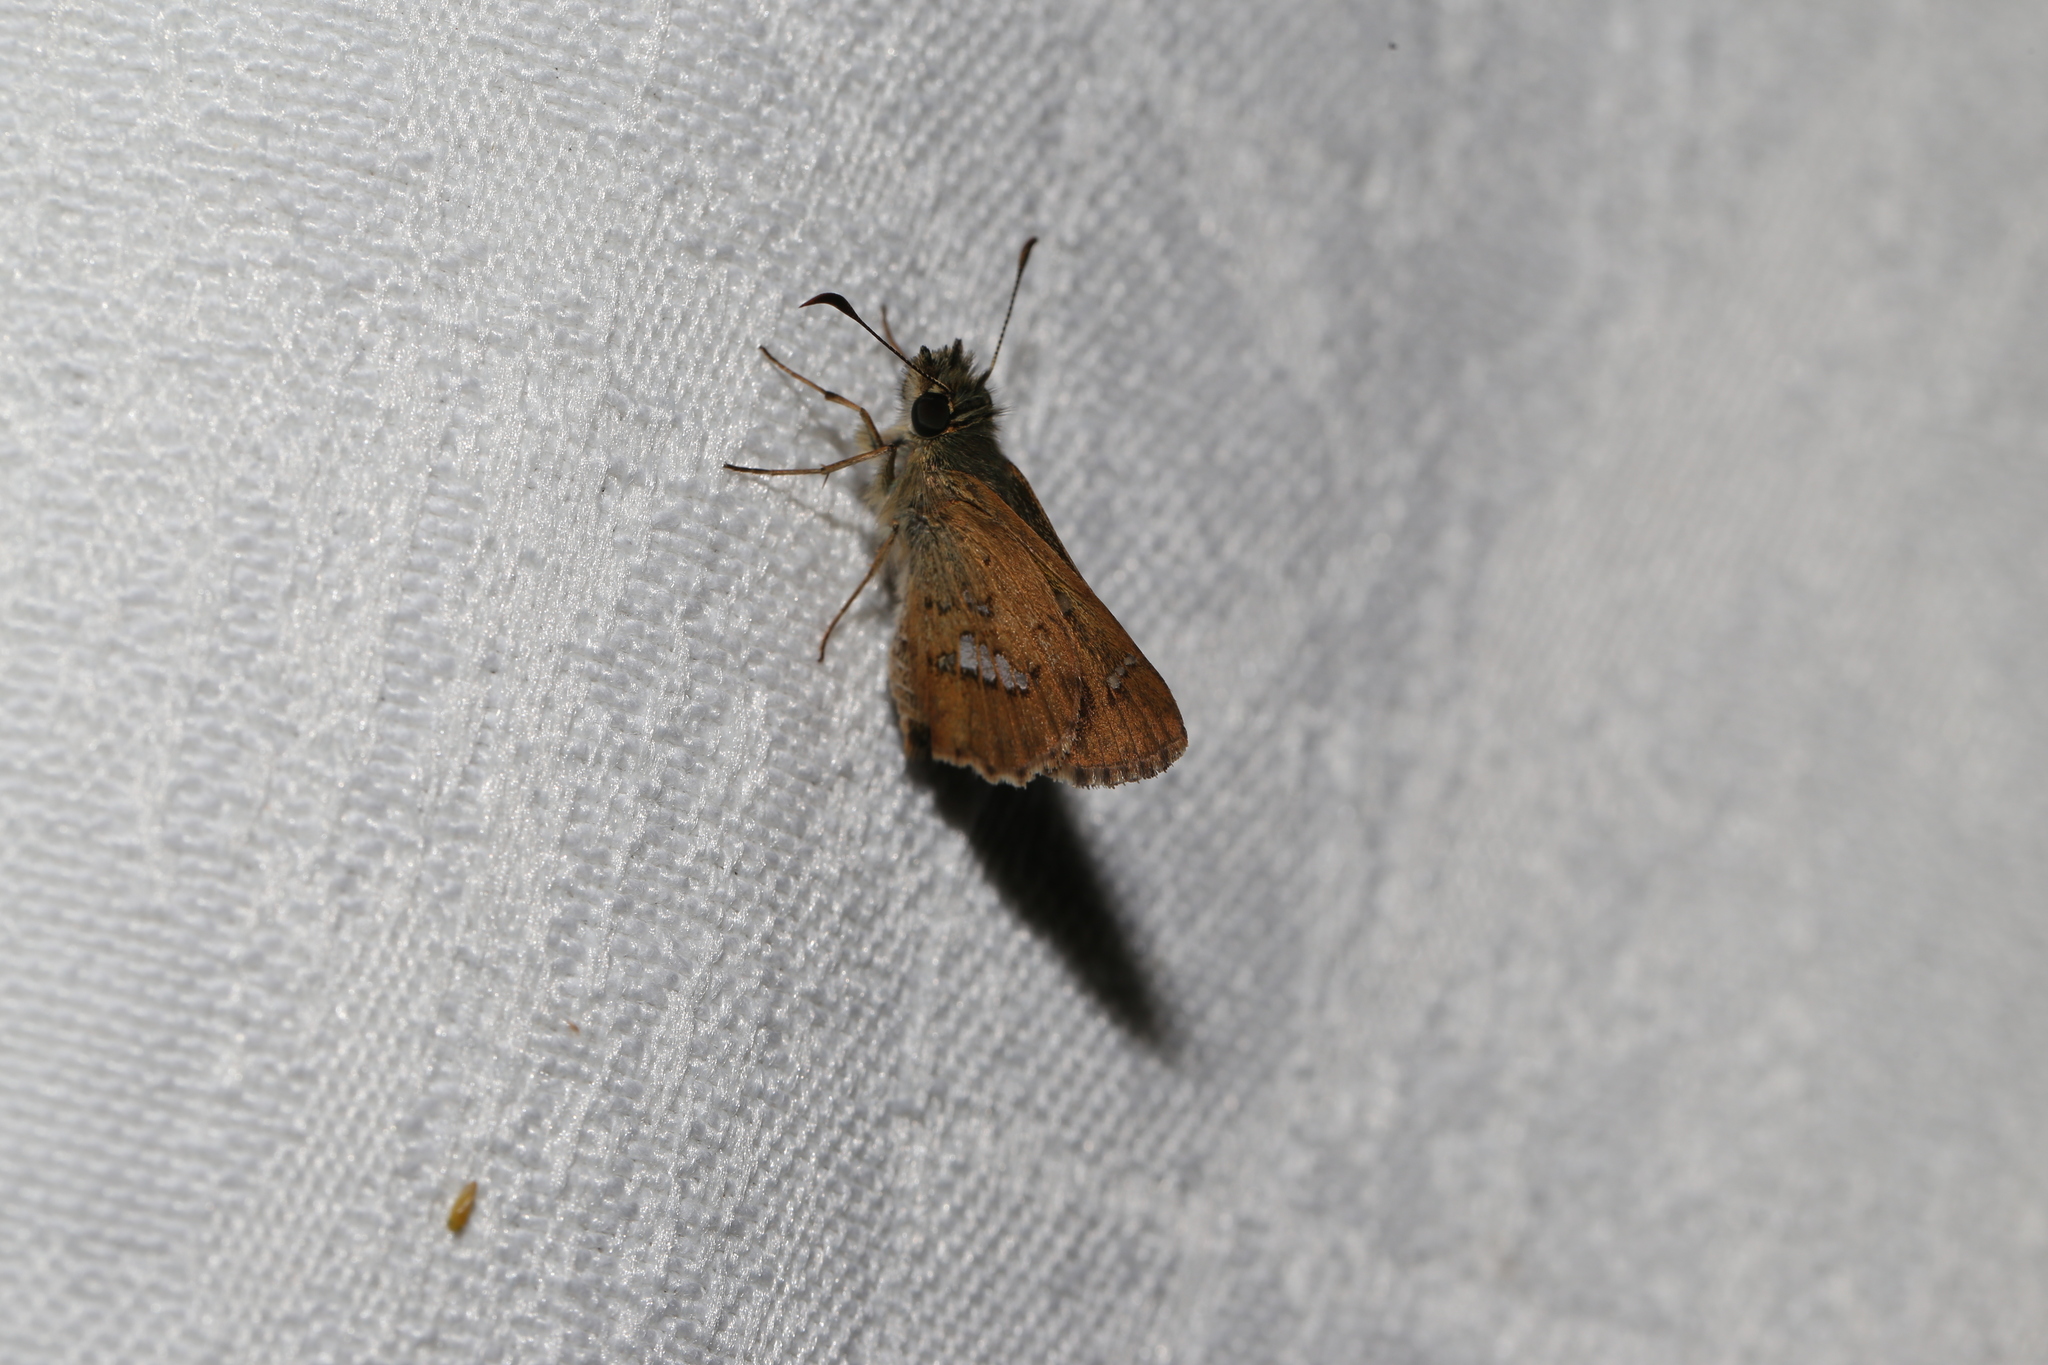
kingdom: Animalia
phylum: Arthropoda
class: Insecta
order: Lepidoptera
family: Hesperiidae
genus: Dispar
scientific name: Dispar compacta
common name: Barred skipper
